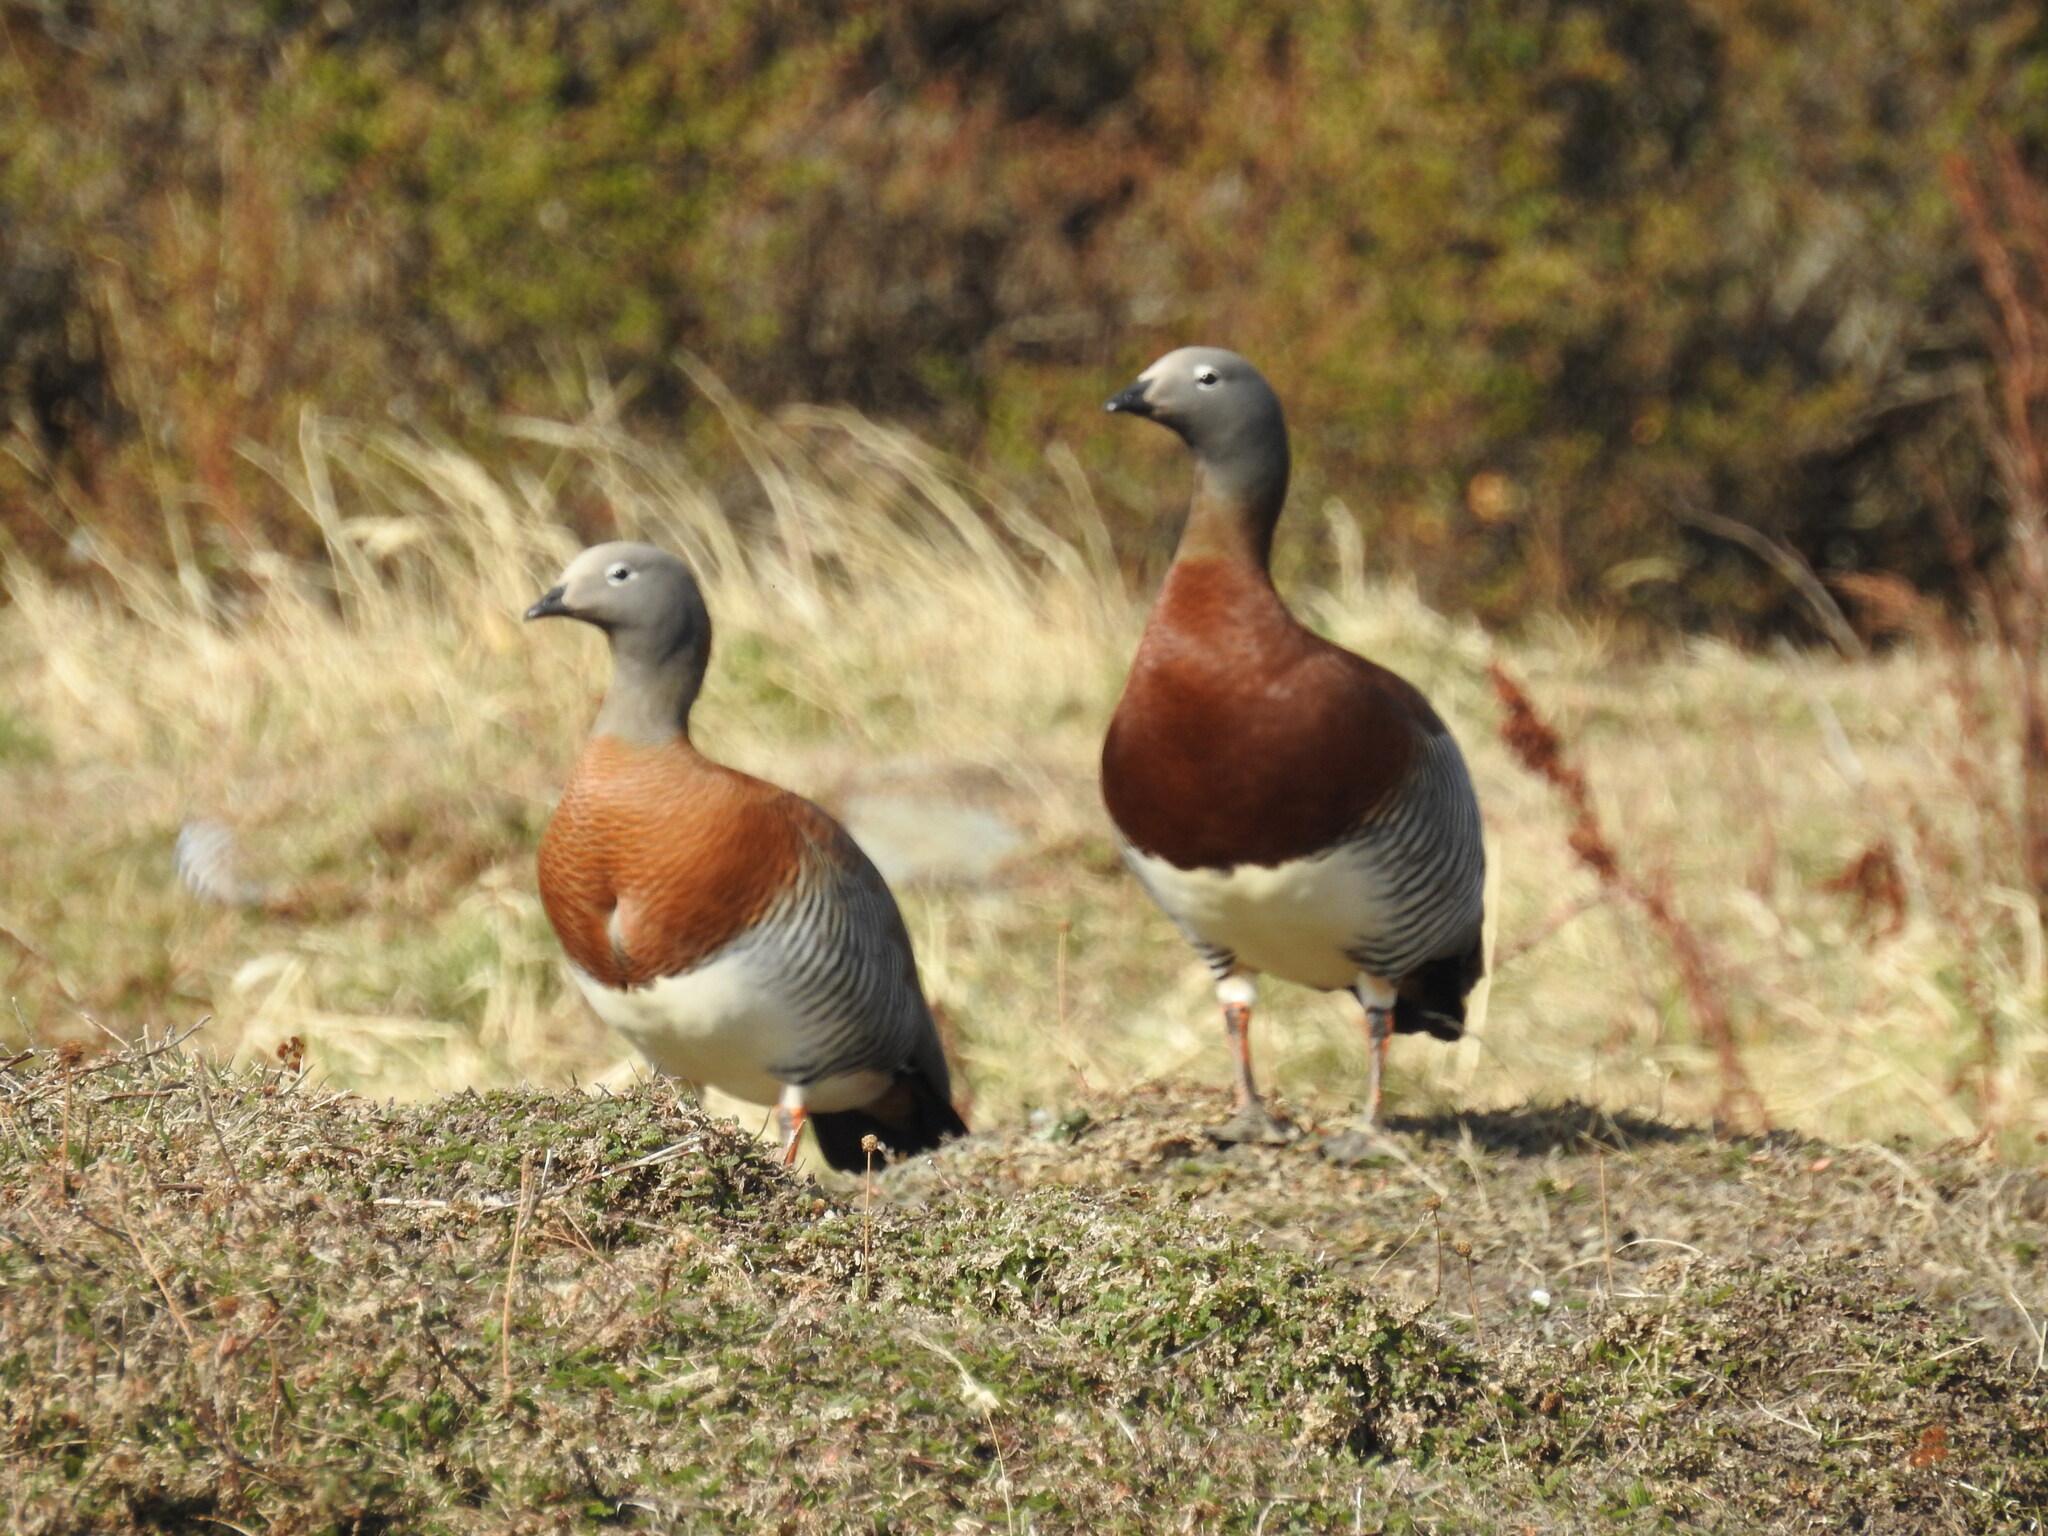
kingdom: Animalia
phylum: Chordata
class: Aves
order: Anseriformes
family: Anatidae
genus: Chloephaga
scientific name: Chloephaga poliocephala
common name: Ashy-headed goose
